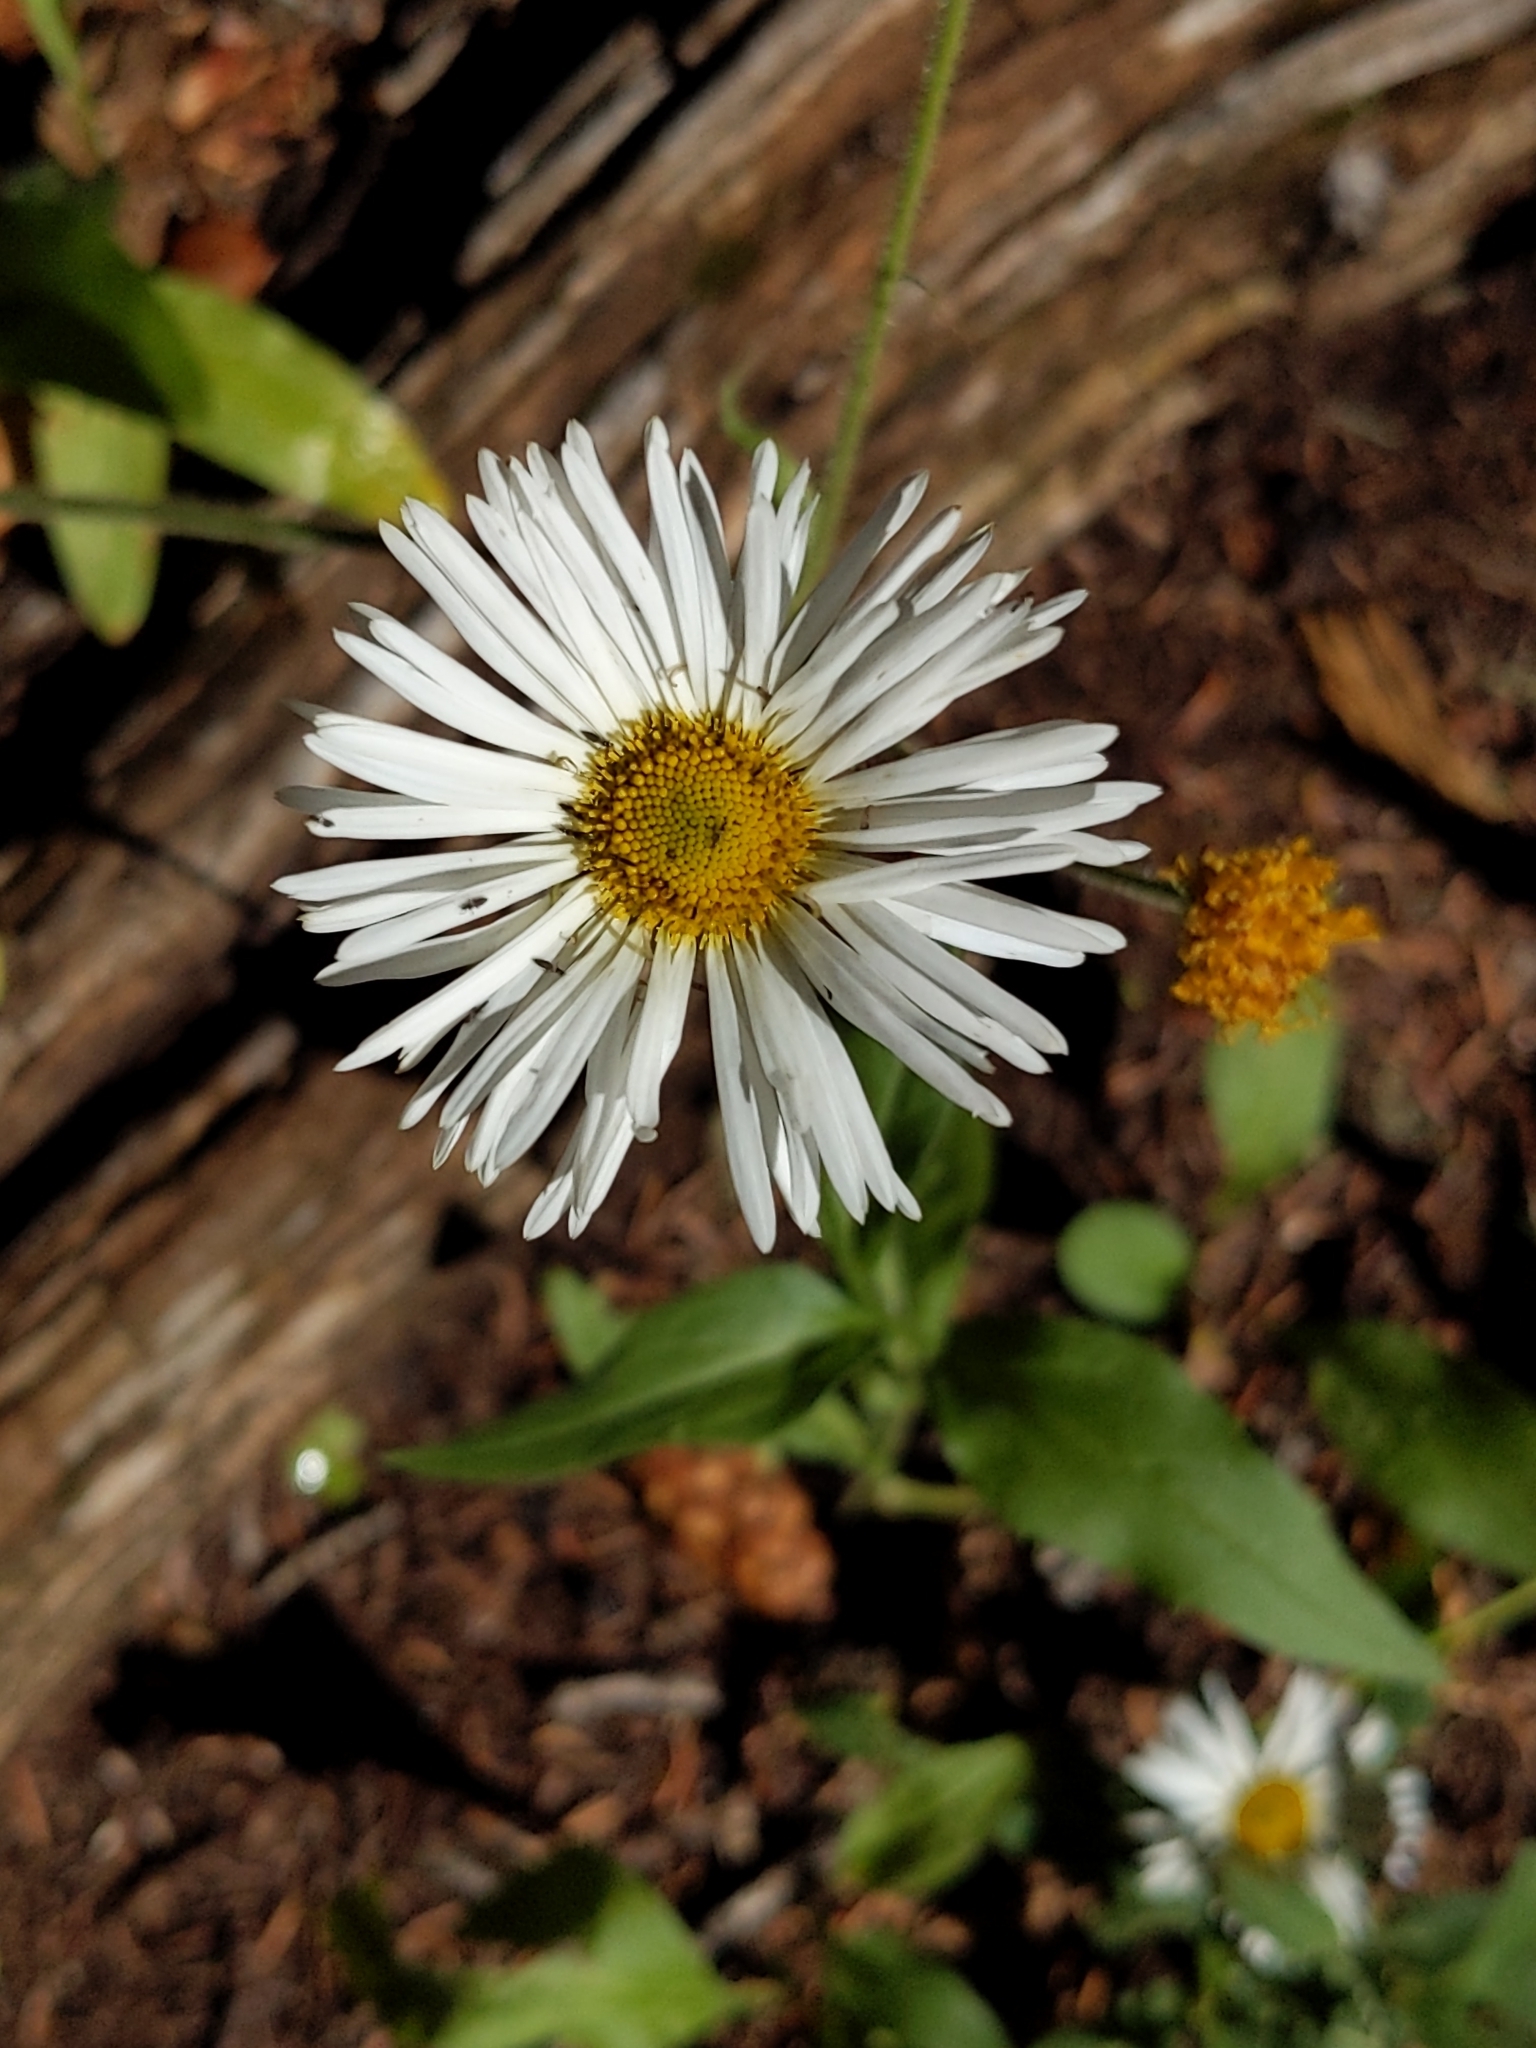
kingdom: Plantae
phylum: Tracheophyta
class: Magnoliopsida
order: Asterales
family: Asteraceae
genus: Erigeron
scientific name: Erigeron coulteri
